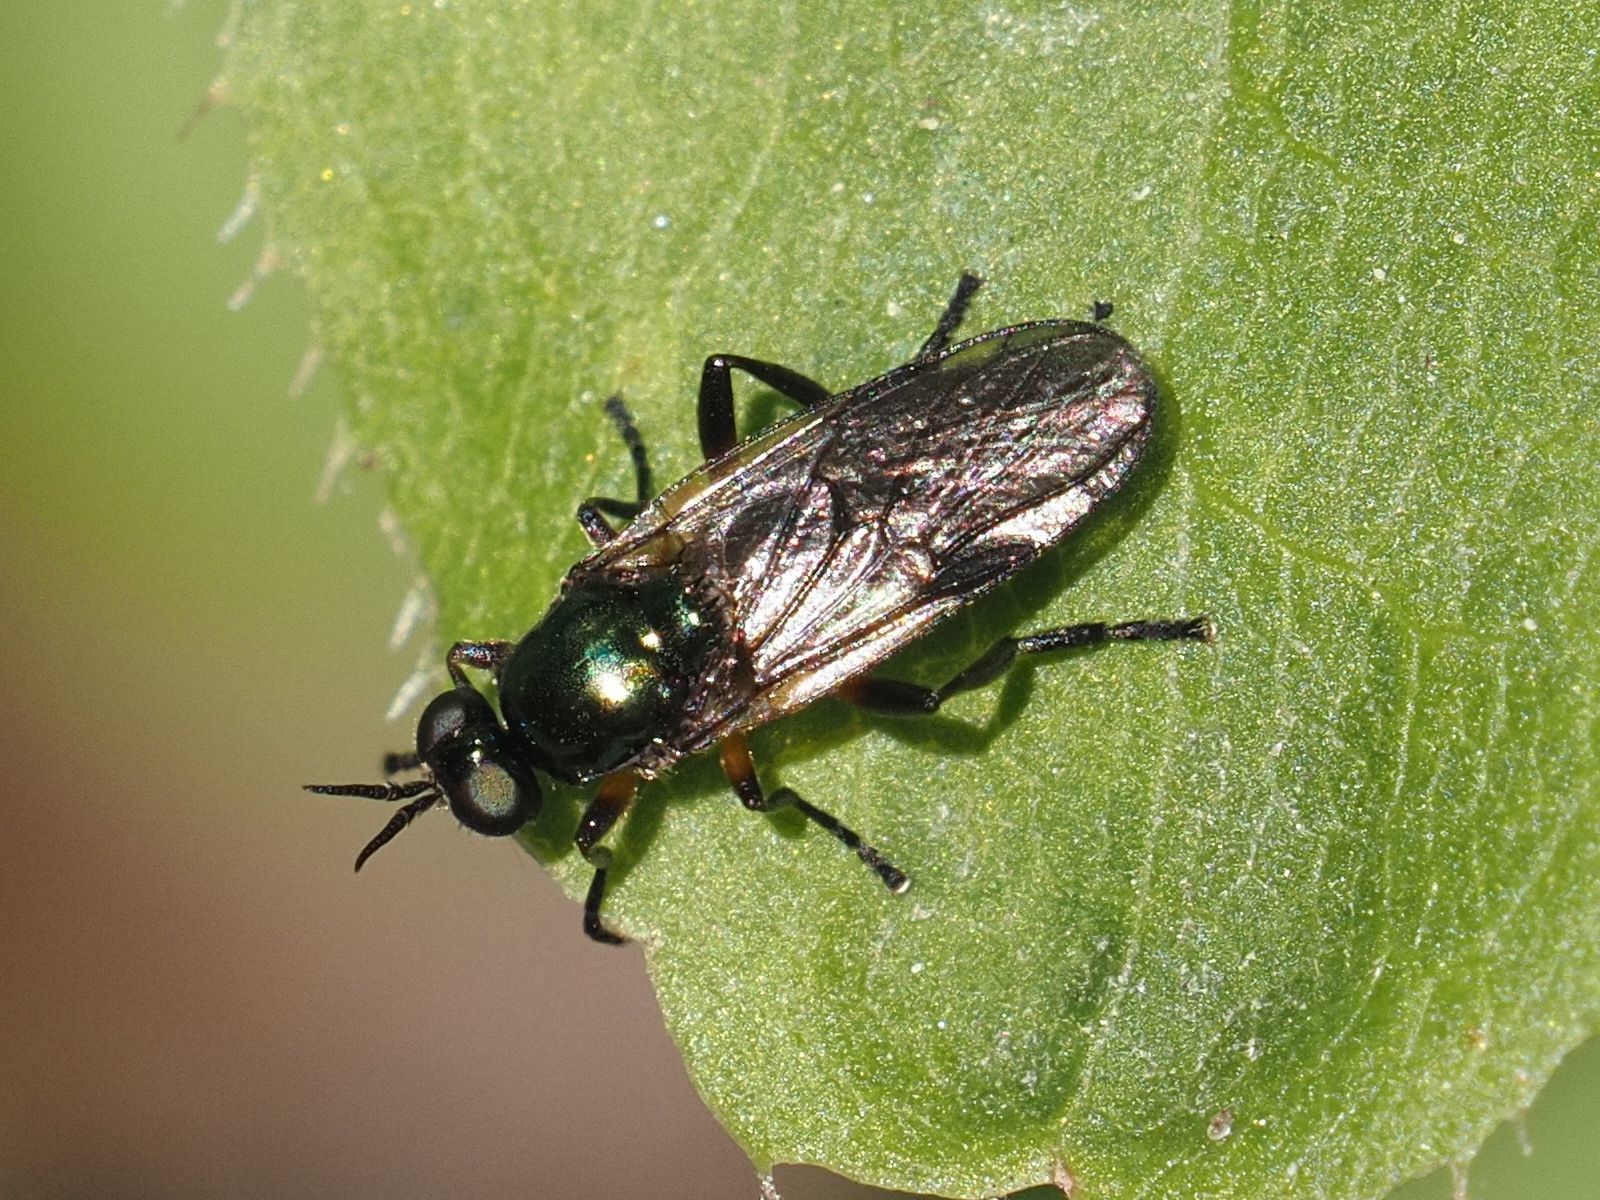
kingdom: Animalia
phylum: Arthropoda
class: Insecta
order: Diptera
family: Stratiomyidae
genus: Actina
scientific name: Actina chalybea
